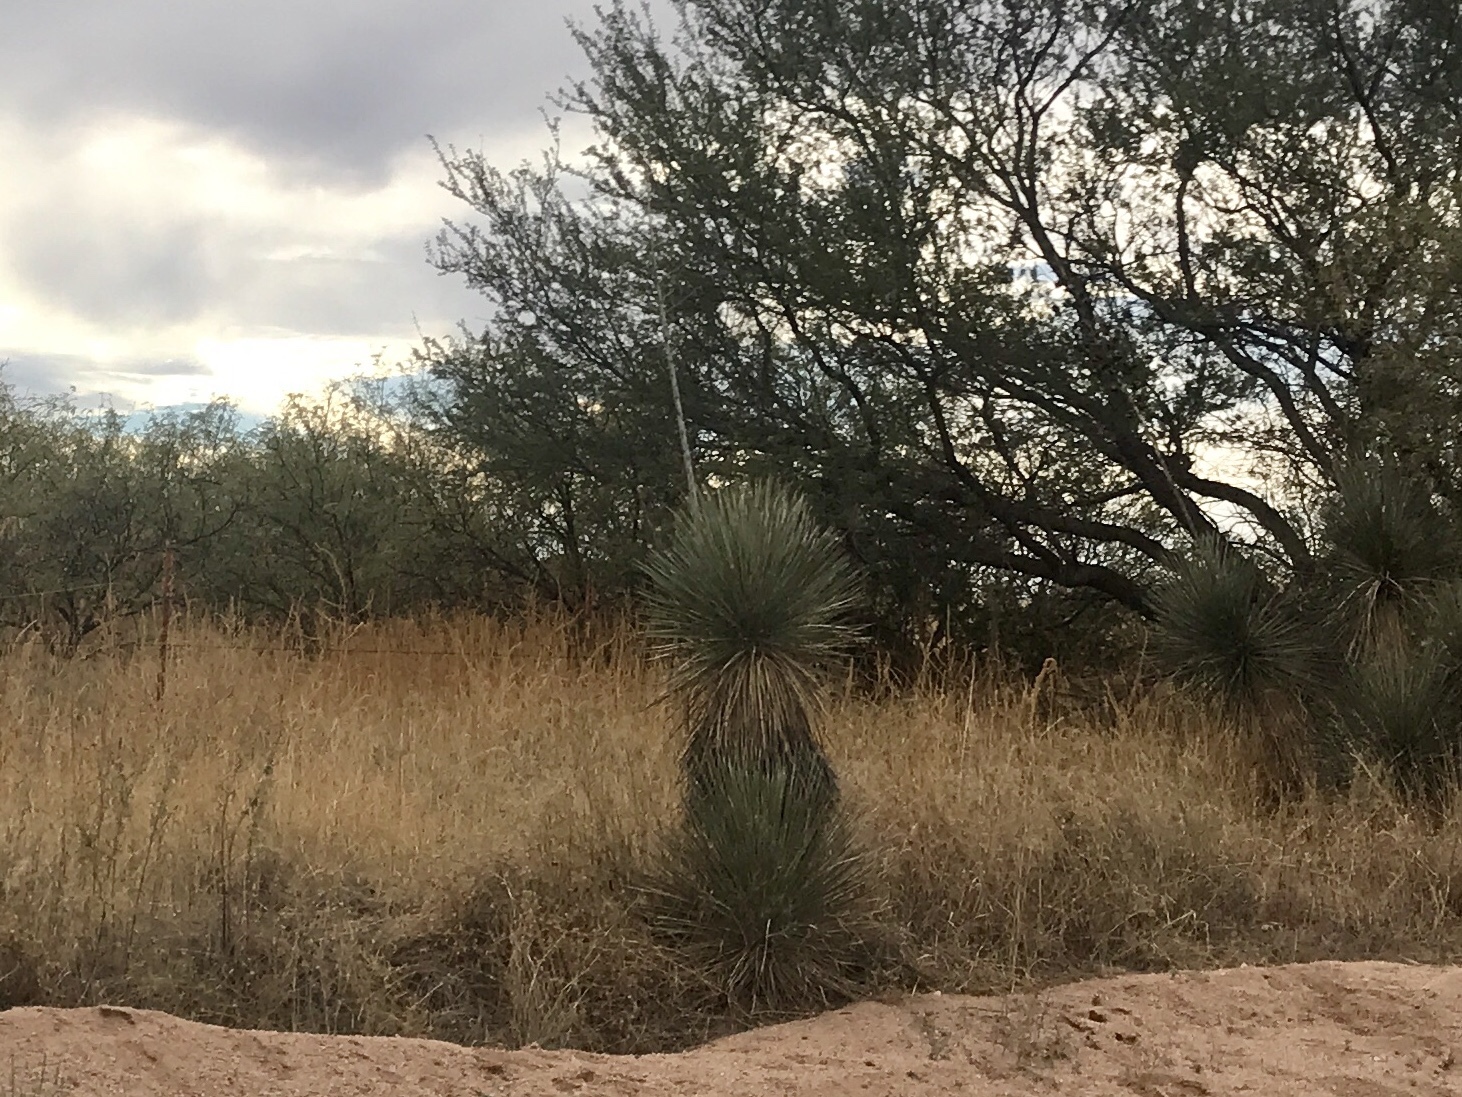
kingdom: Plantae
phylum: Tracheophyta
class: Liliopsida
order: Asparagales
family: Asparagaceae
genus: Yucca
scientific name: Yucca elata
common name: Palmella
